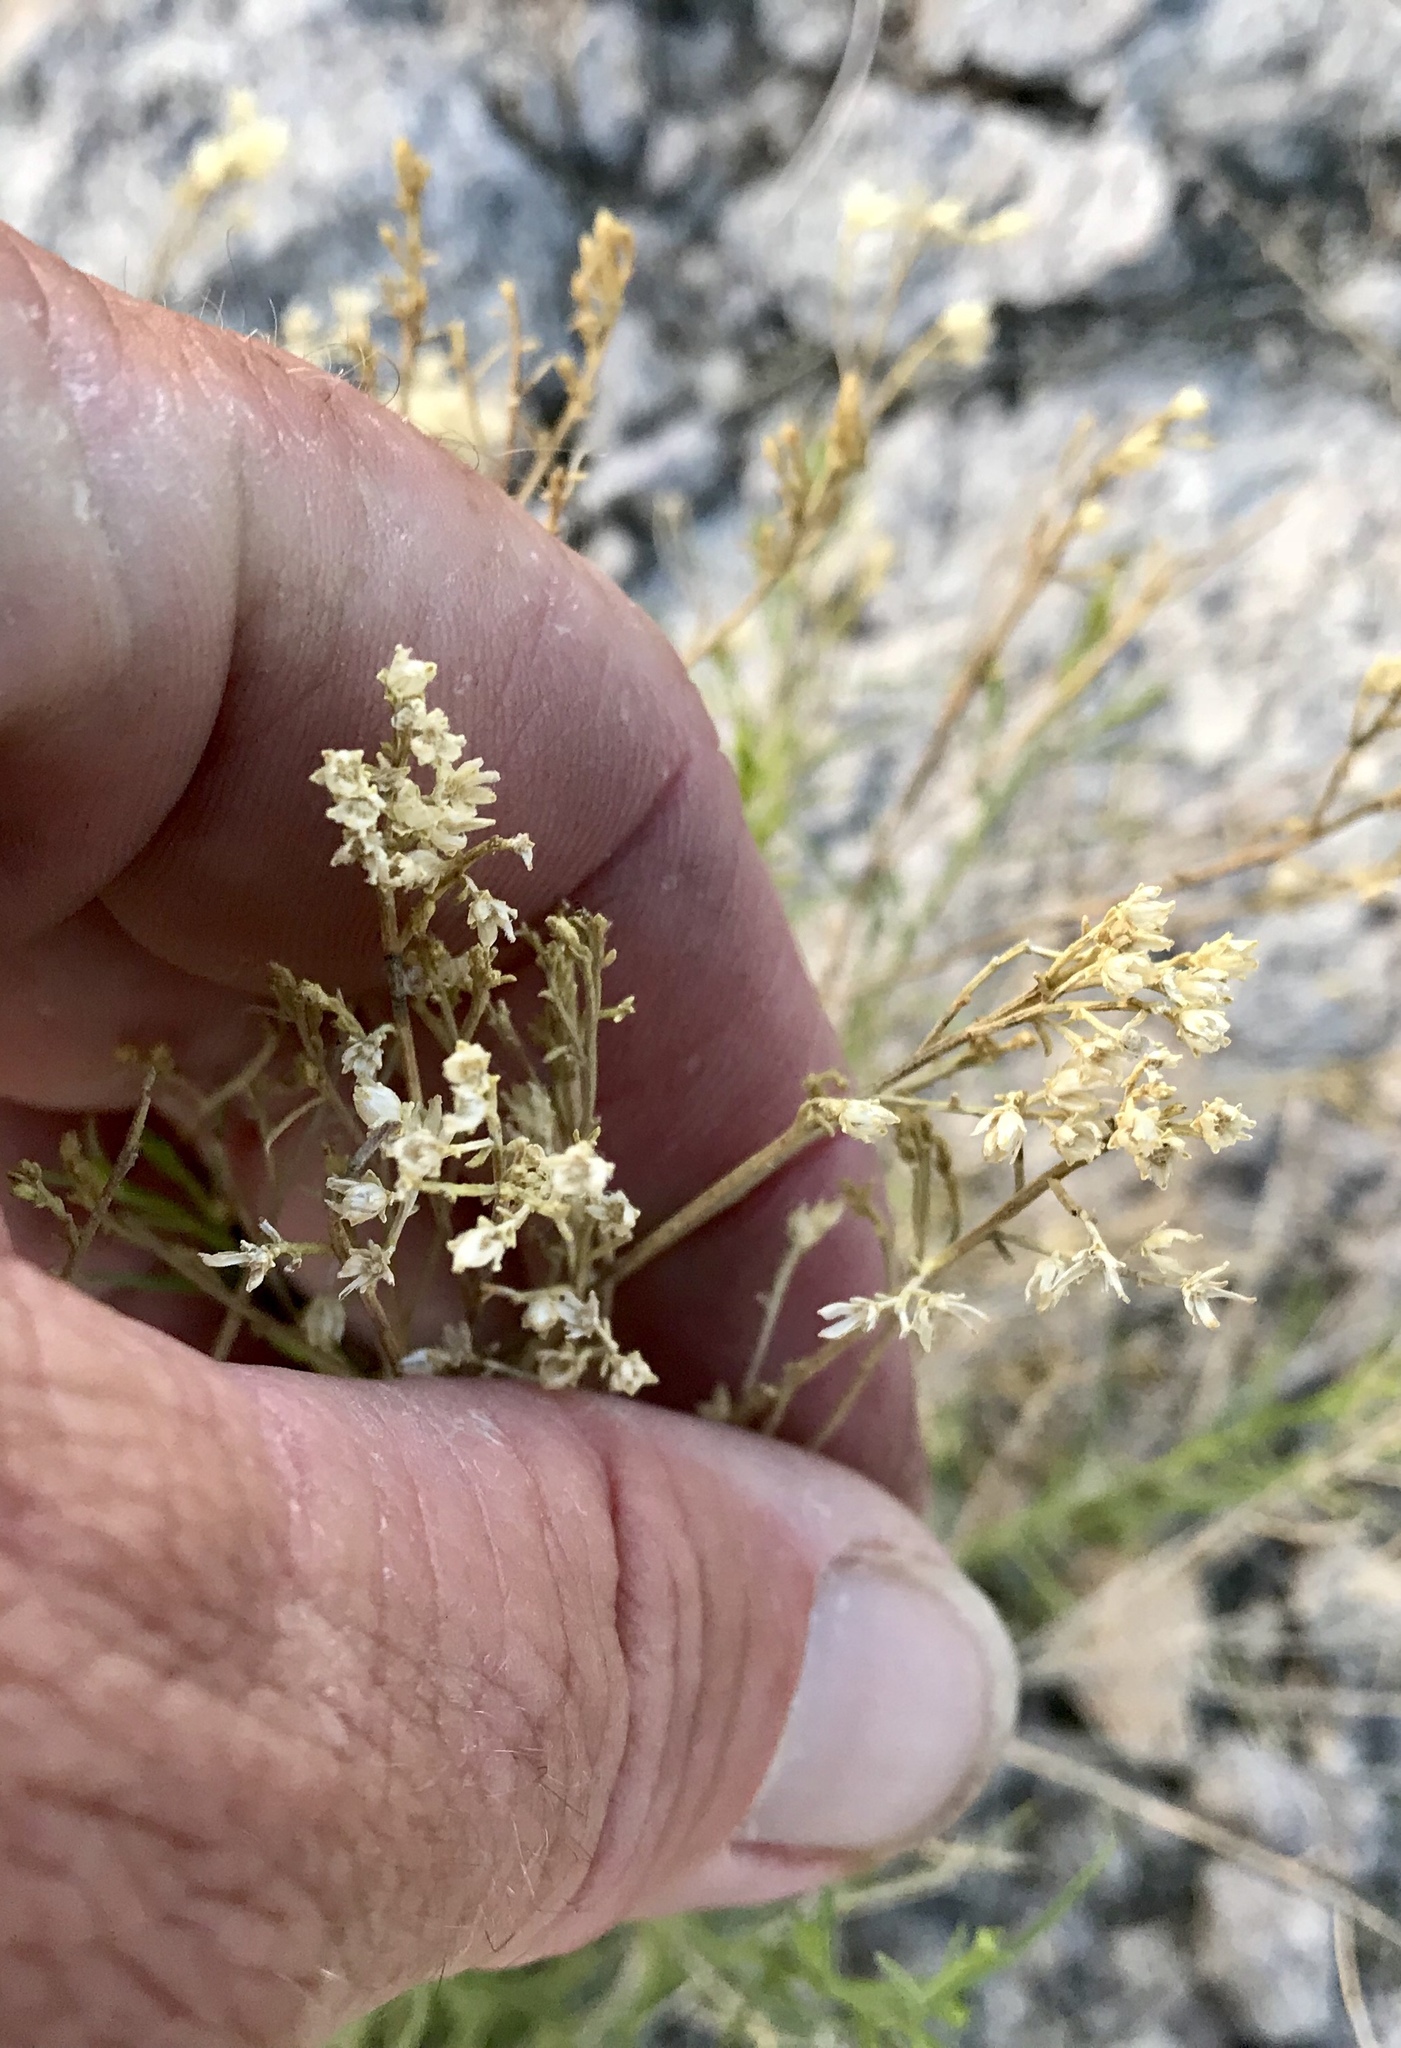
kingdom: Plantae
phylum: Tracheophyta
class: Magnoliopsida
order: Asterales
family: Asteraceae
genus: Gutierrezia
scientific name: Gutierrezia sarothrae
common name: Broom snakeweed
